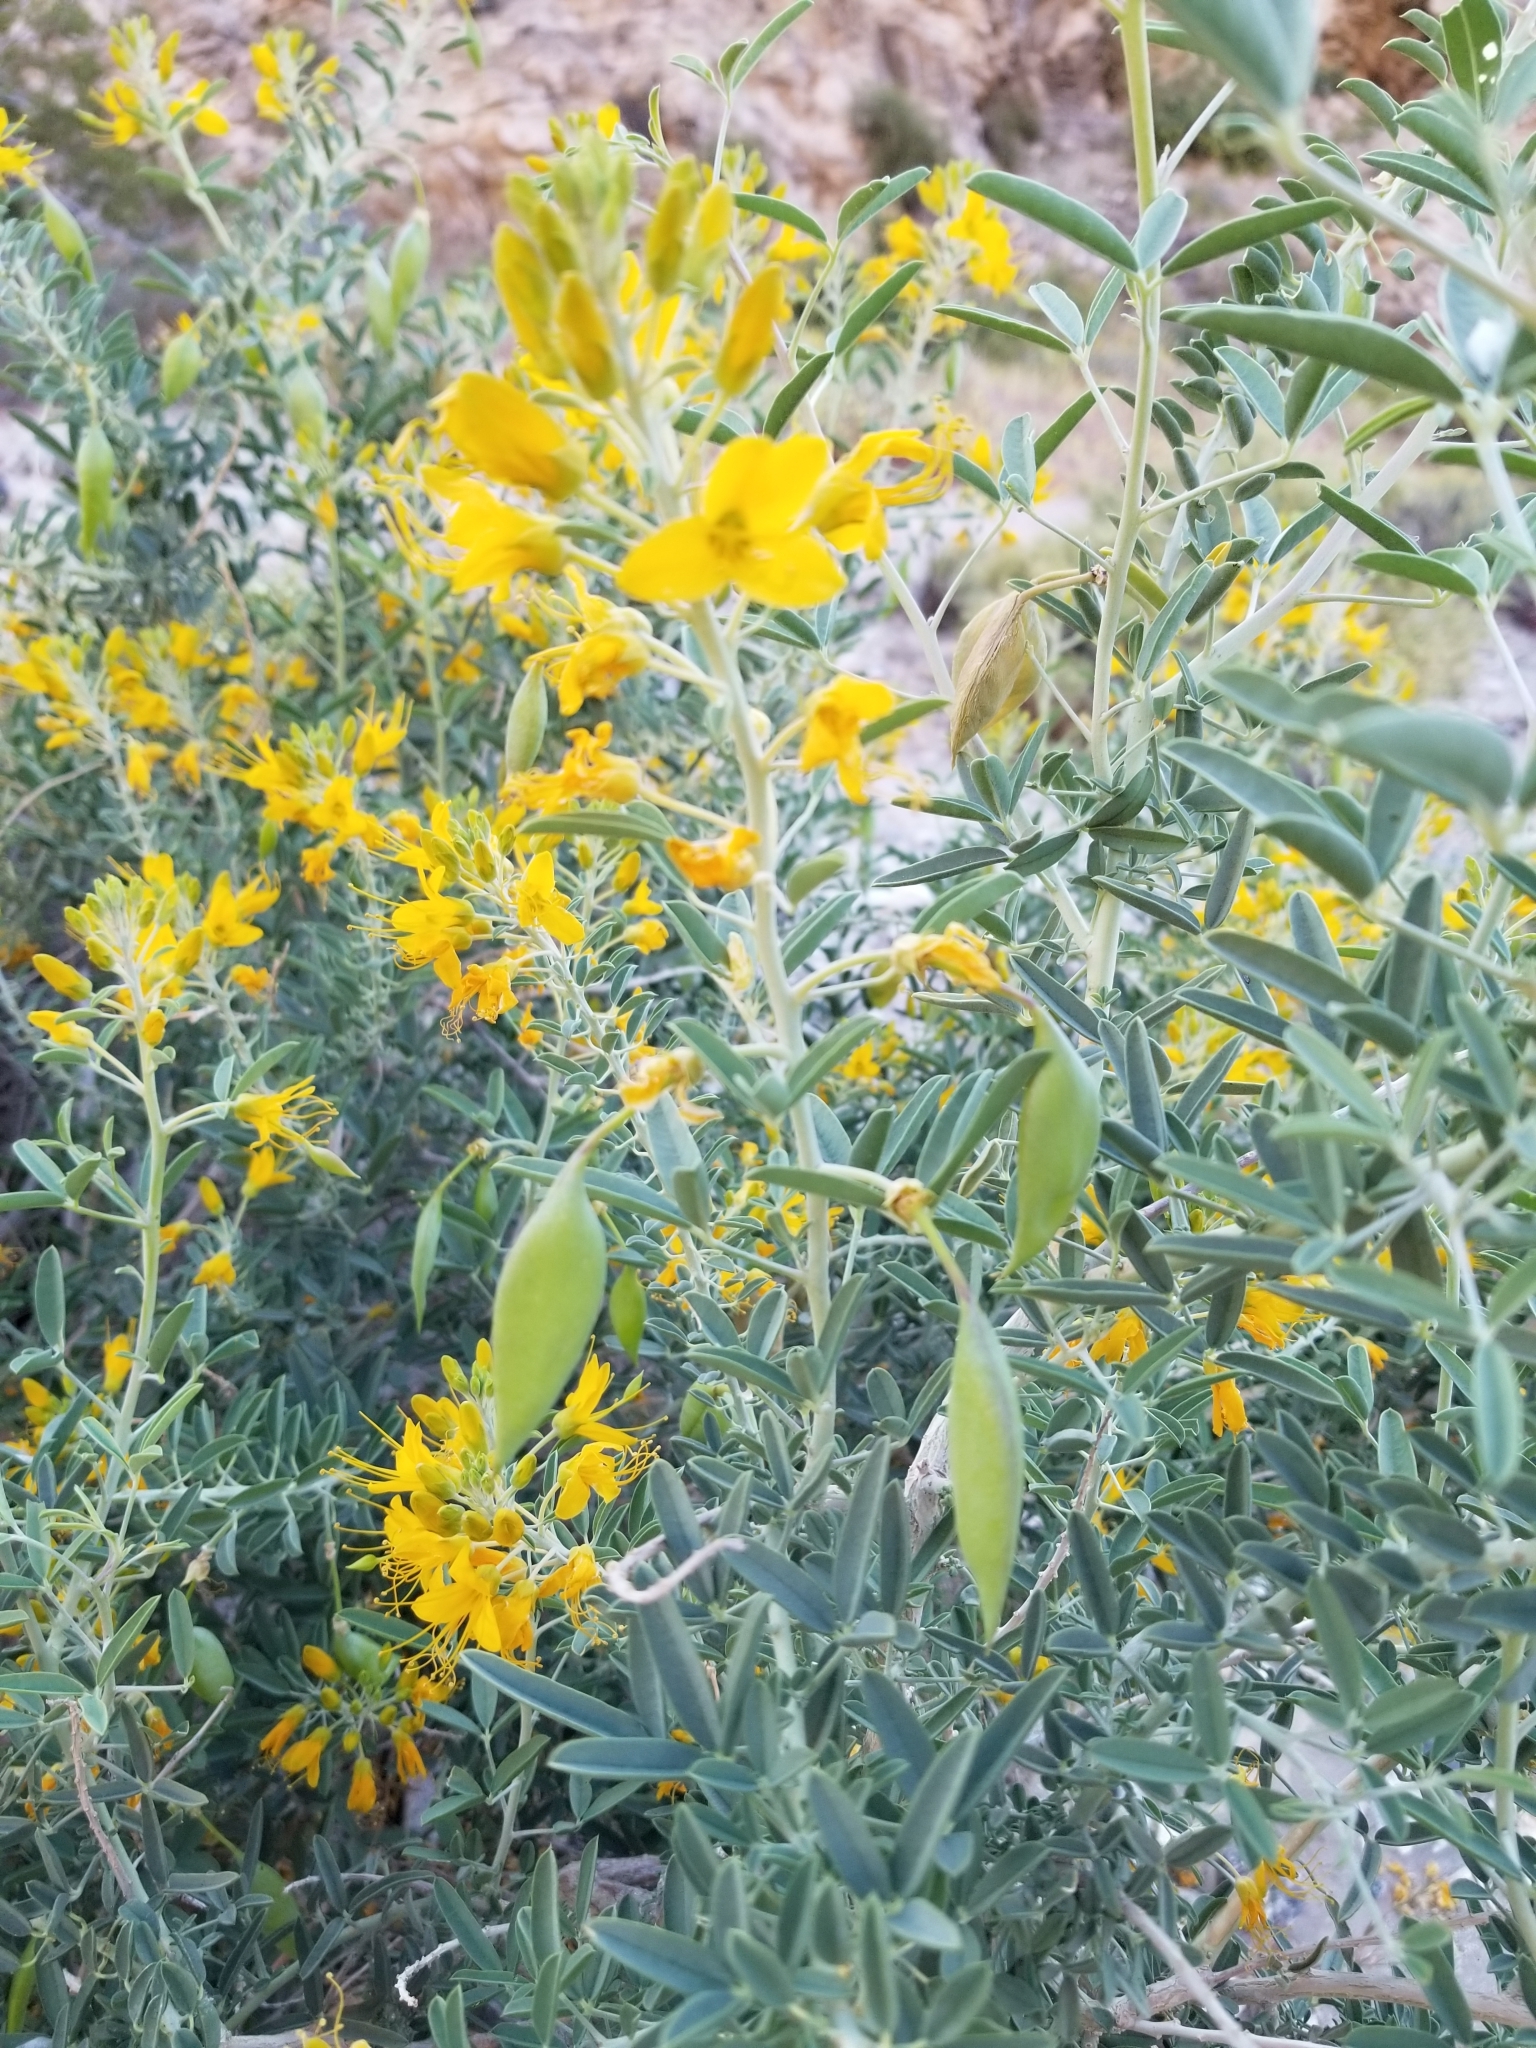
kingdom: Plantae
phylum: Tracheophyta
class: Magnoliopsida
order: Brassicales
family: Cleomaceae
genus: Cleomella
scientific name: Cleomella arborea
